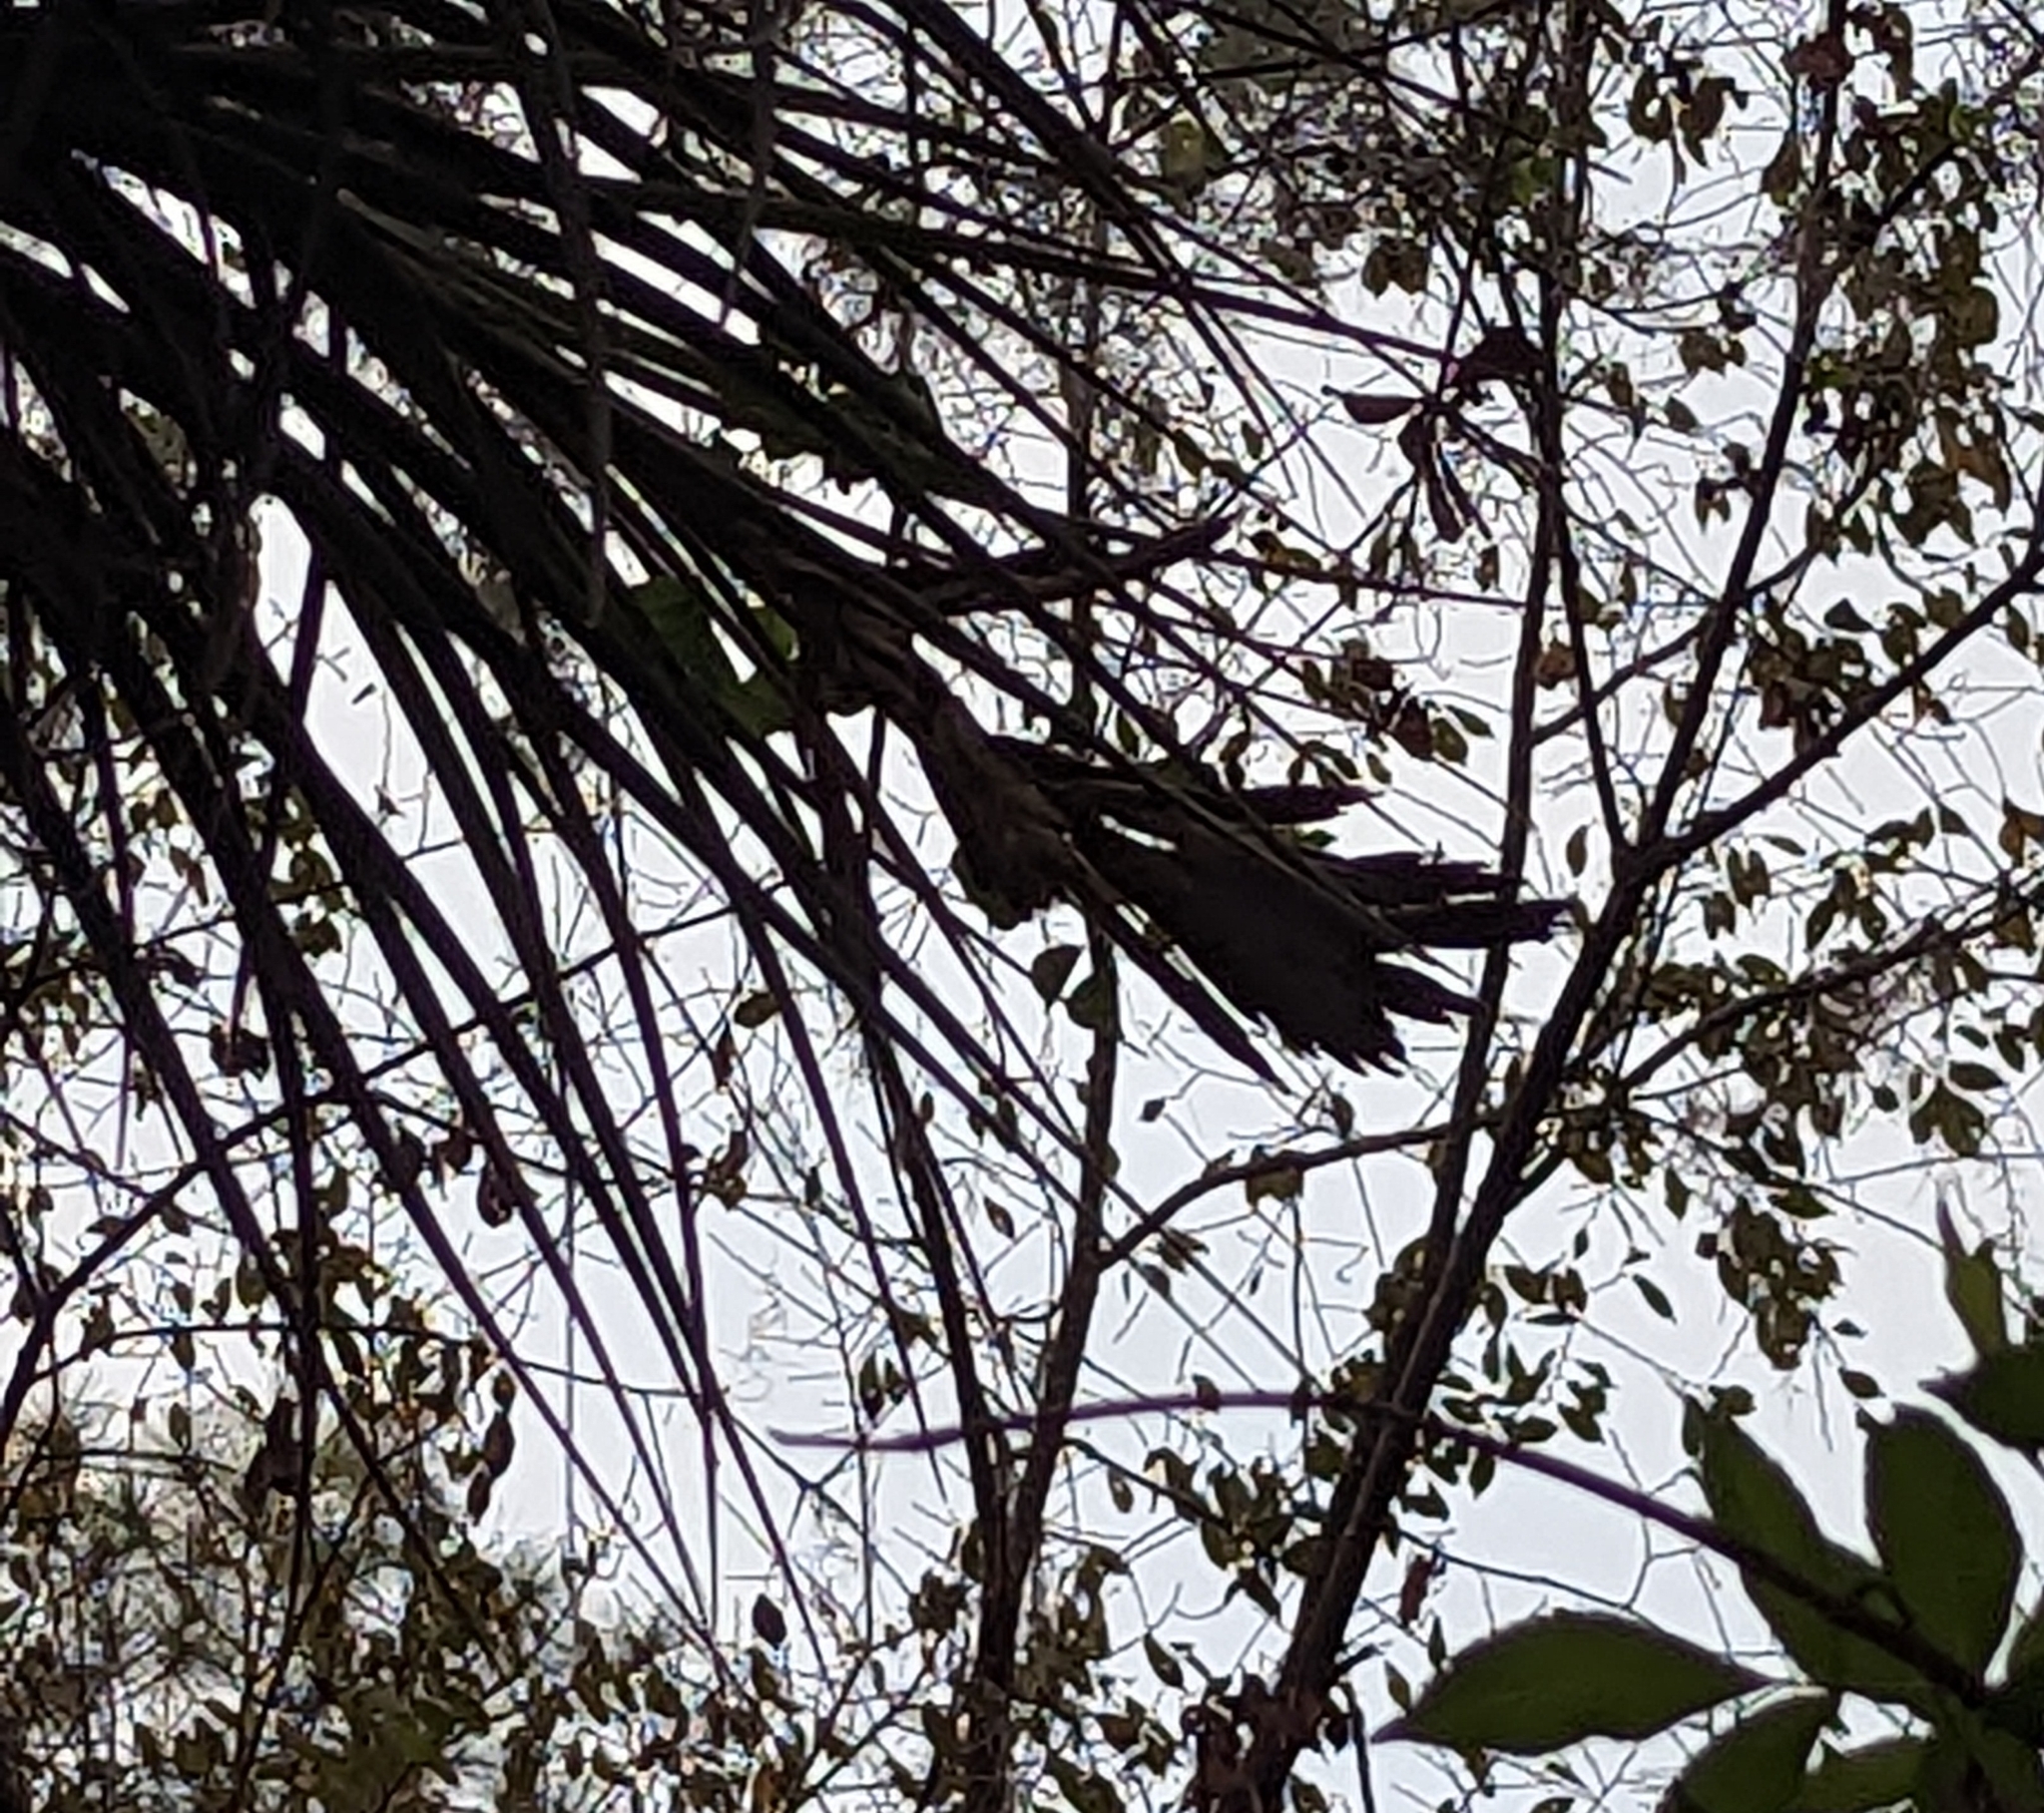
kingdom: Plantae
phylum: Tracheophyta
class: Liliopsida
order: Poales
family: Bromeliaceae
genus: Tillandsia
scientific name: Tillandsia fasciculata
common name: Giant airplant
